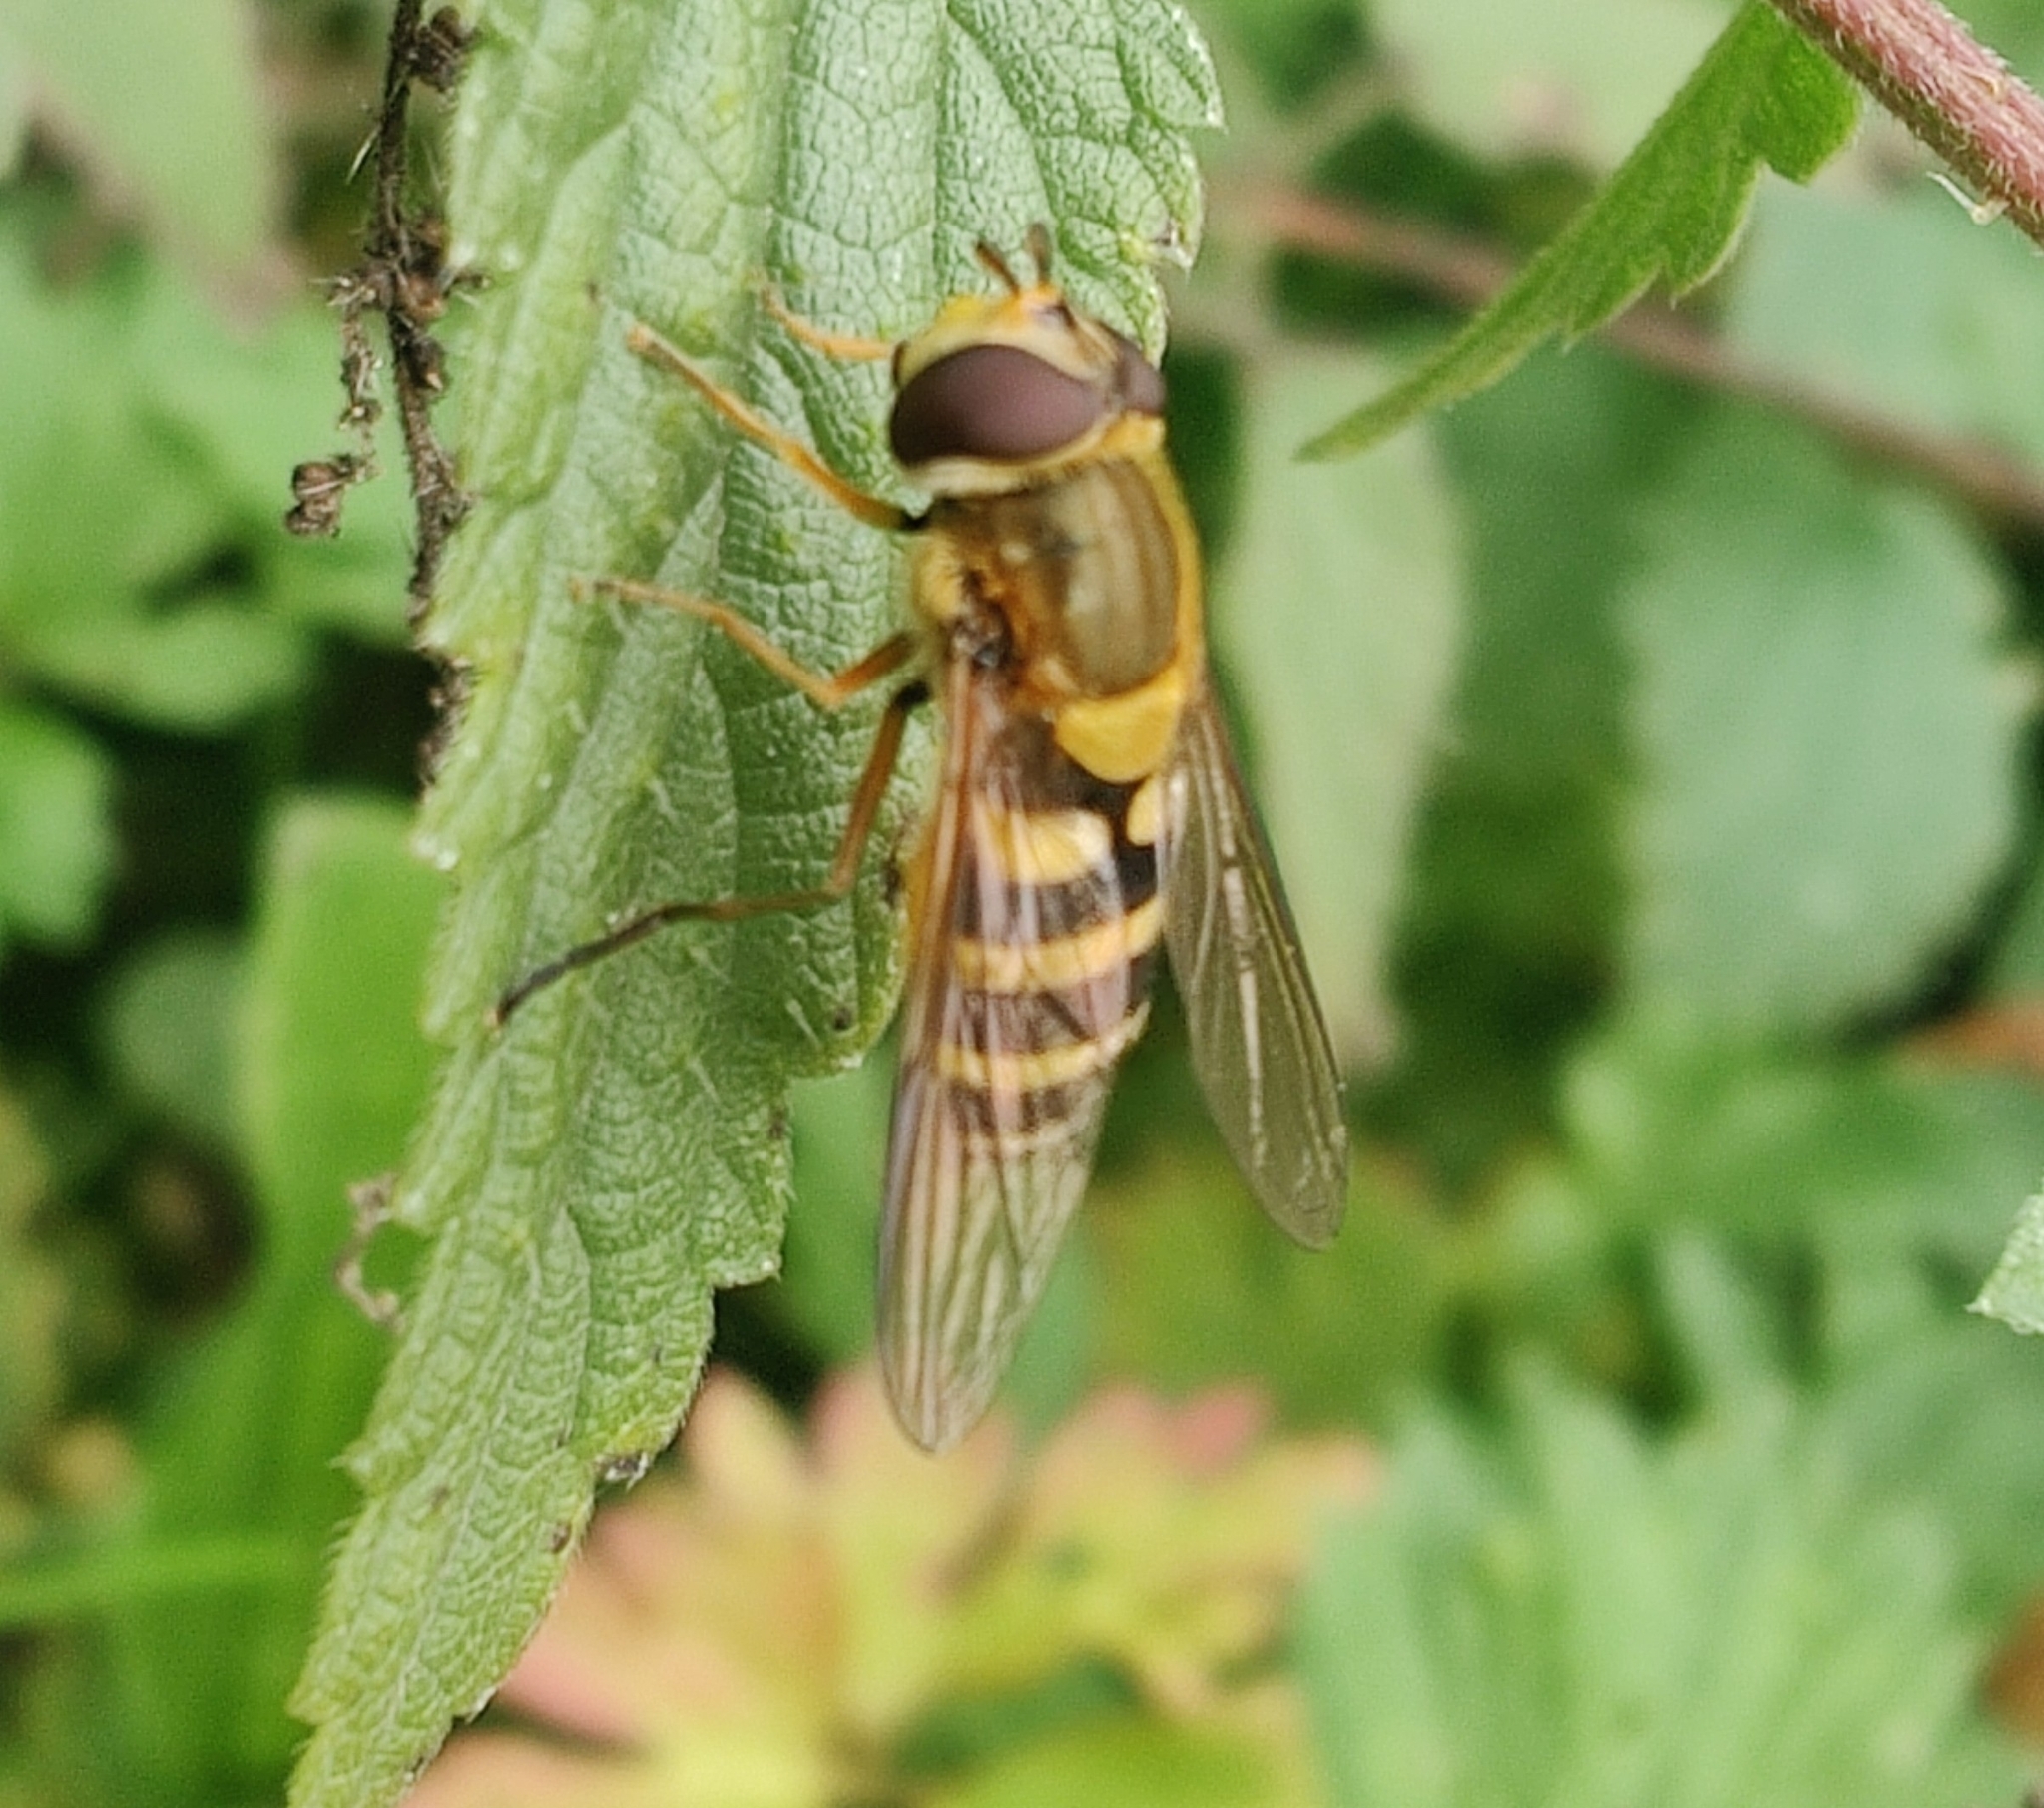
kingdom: Animalia
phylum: Arthropoda
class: Insecta
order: Diptera
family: Syrphidae
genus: Syrphus
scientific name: Syrphus ribesii
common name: Common flower fly
